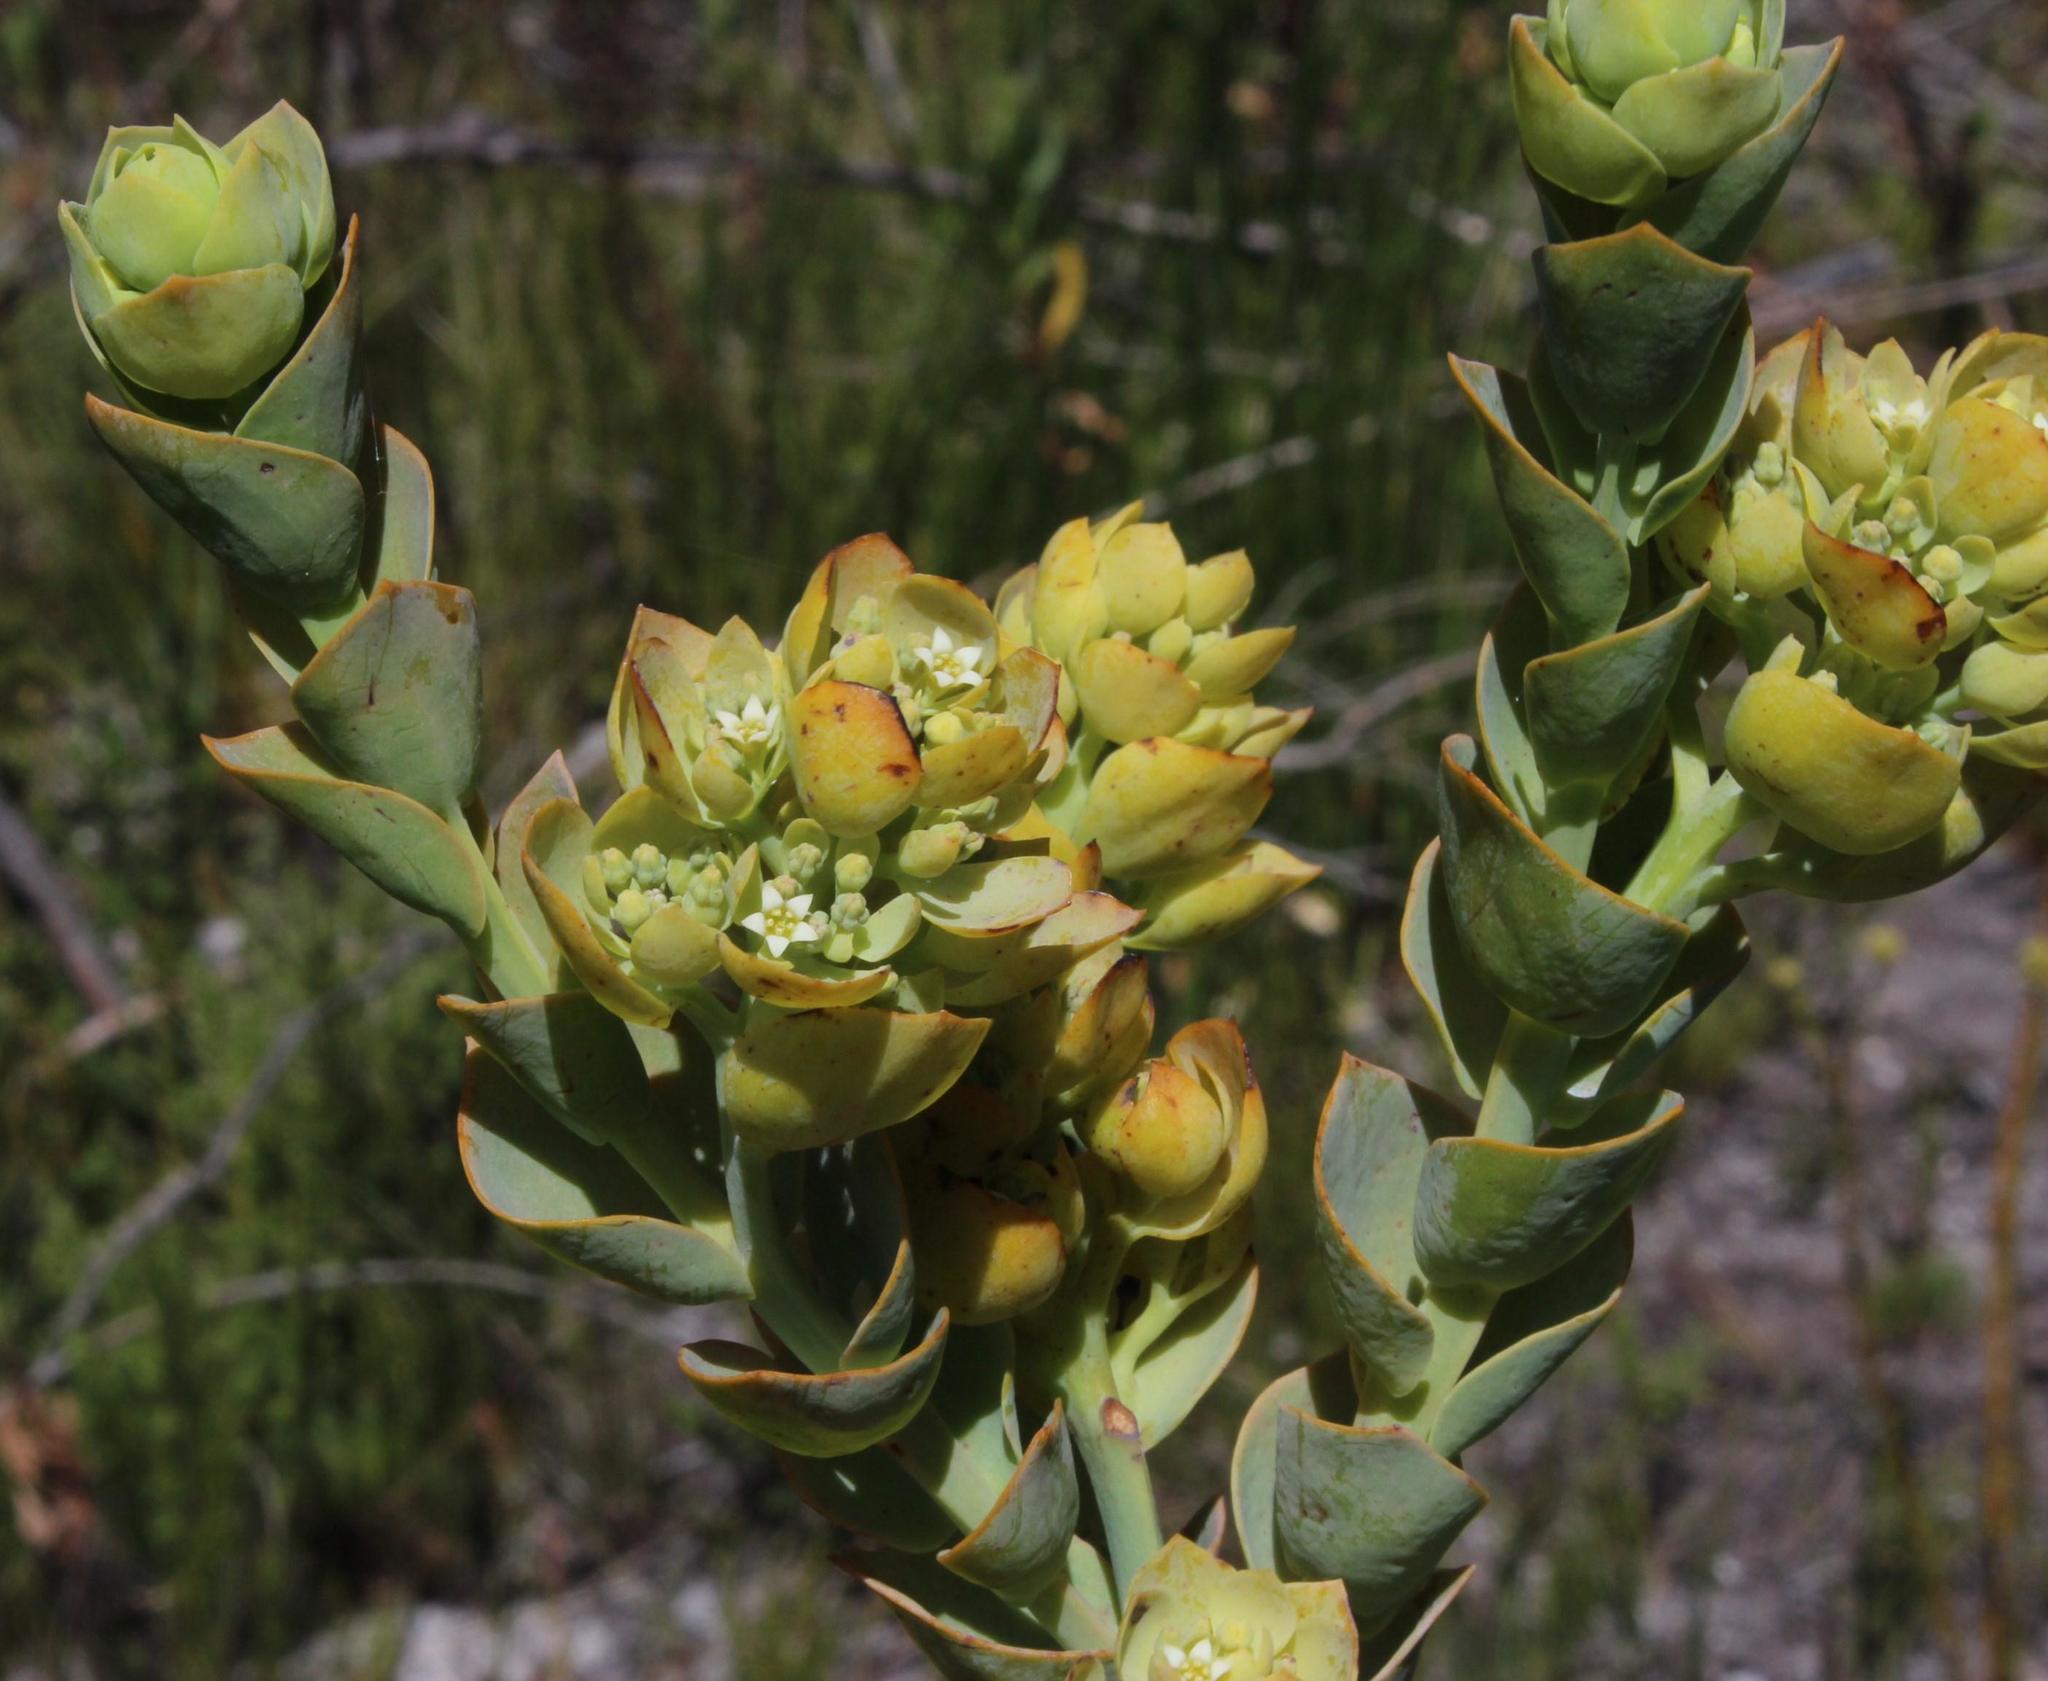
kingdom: Plantae
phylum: Tracheophyta
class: Magnoliopsida
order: Santalales
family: Thesiaceae
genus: Thesium
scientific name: Thesium euphorbioides
